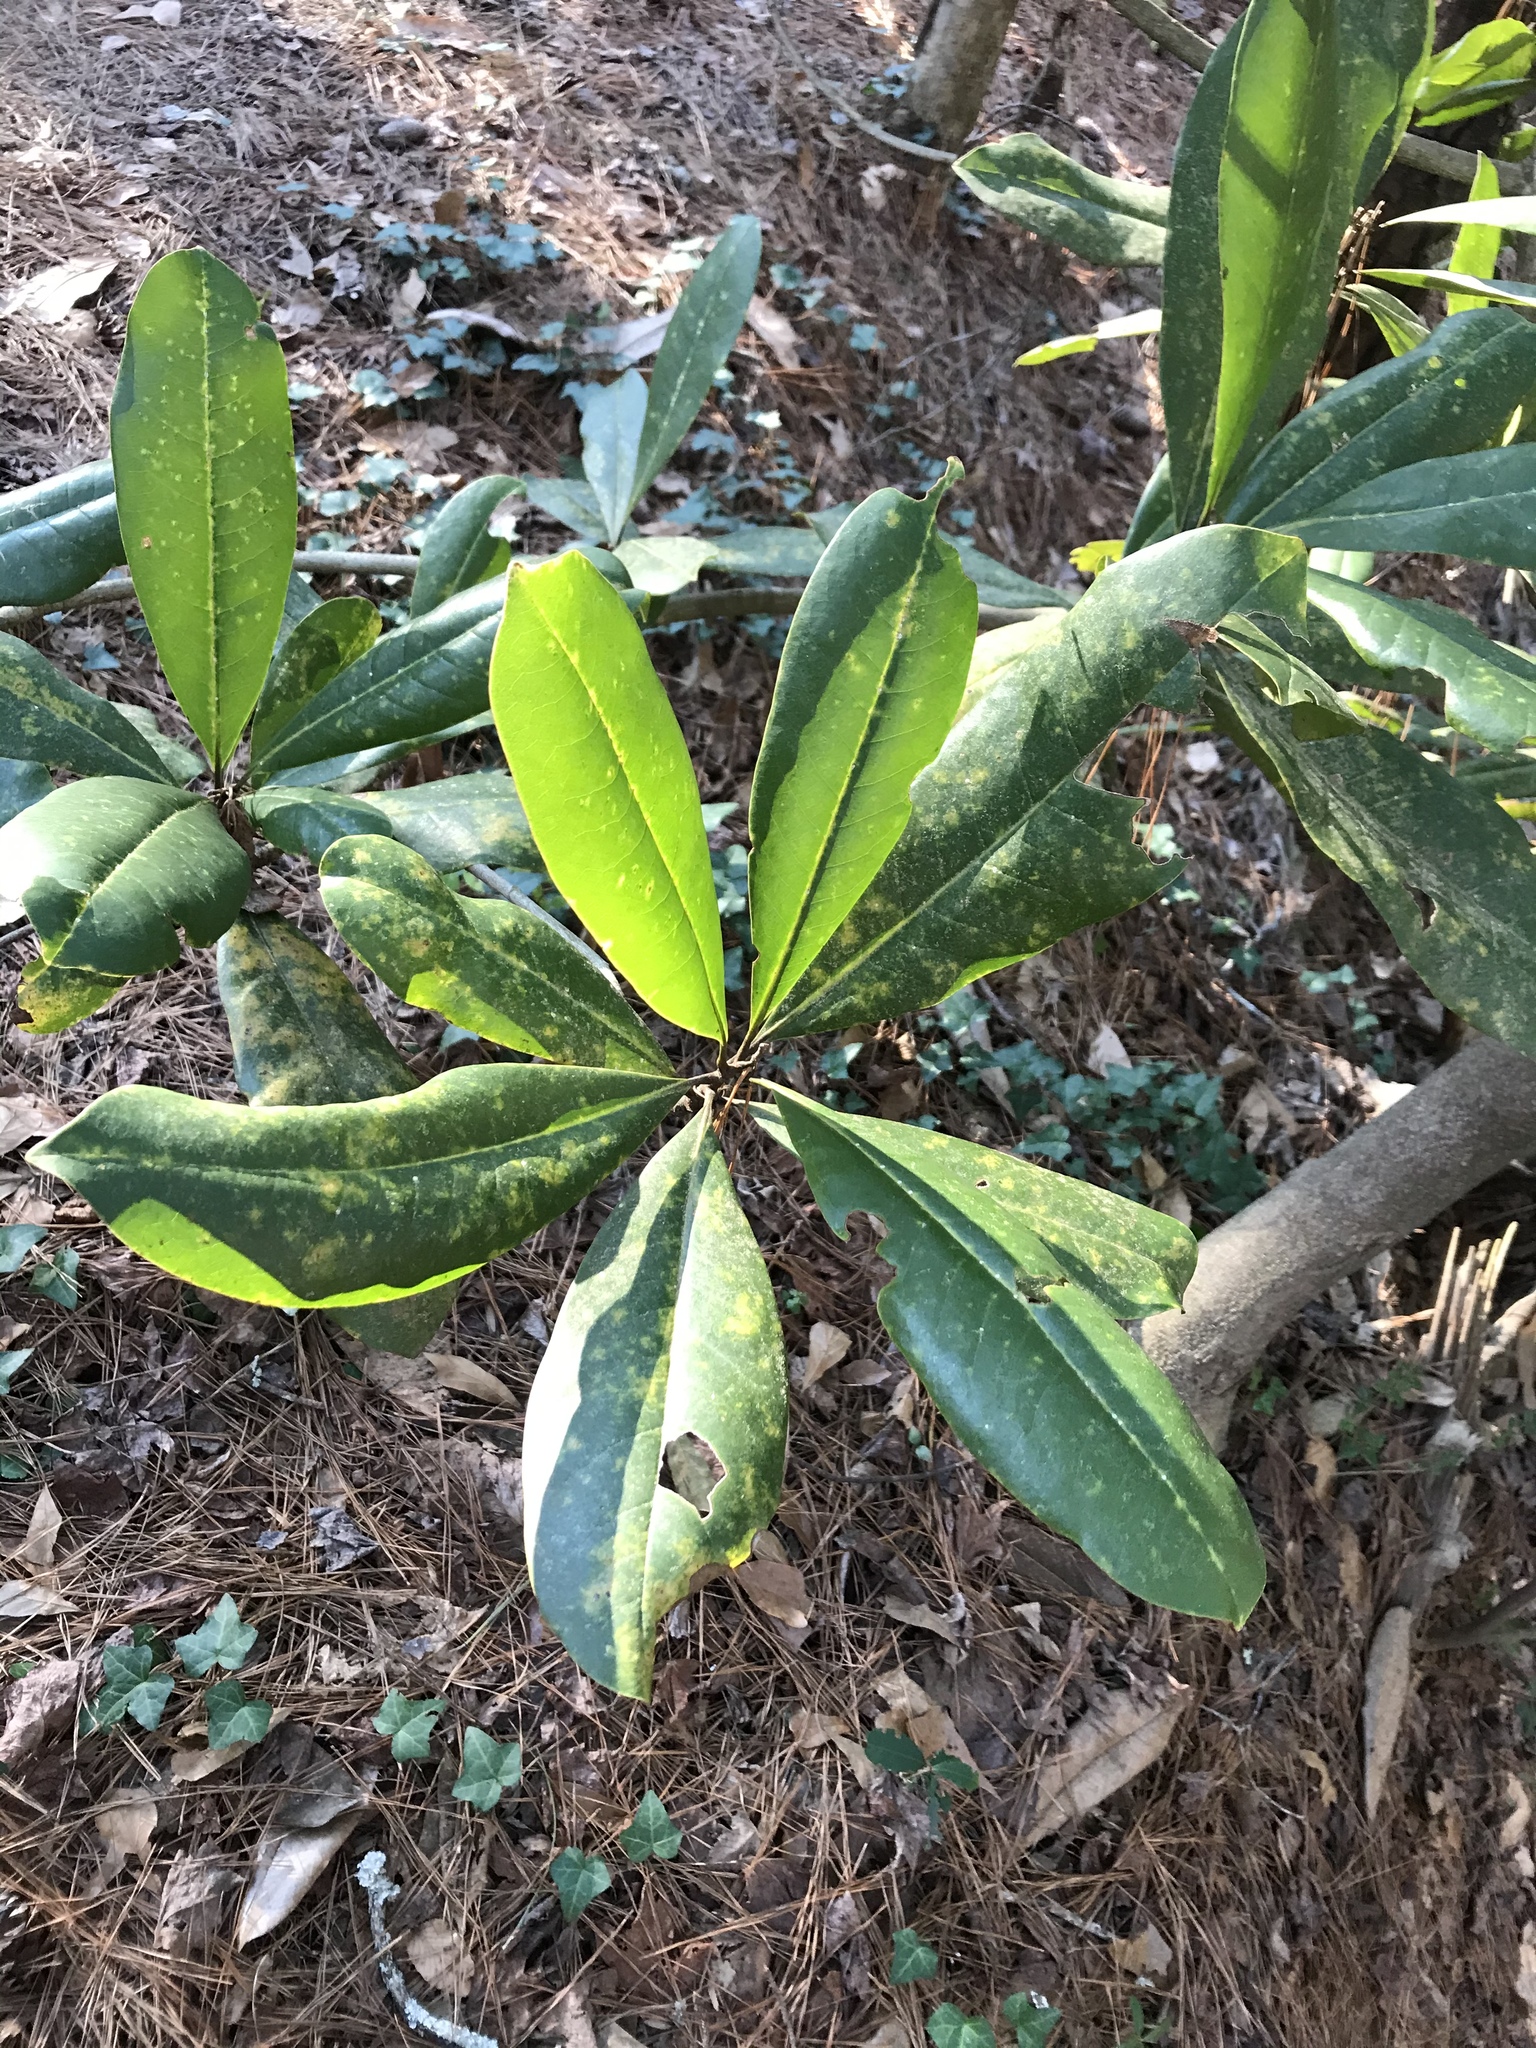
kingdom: Plantae
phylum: Tracheophyta
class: Magnoliopsida
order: Magnoliales
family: Magnoliaceae
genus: Magnolia
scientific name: Magnolia grandiflora
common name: Southern magnolia
